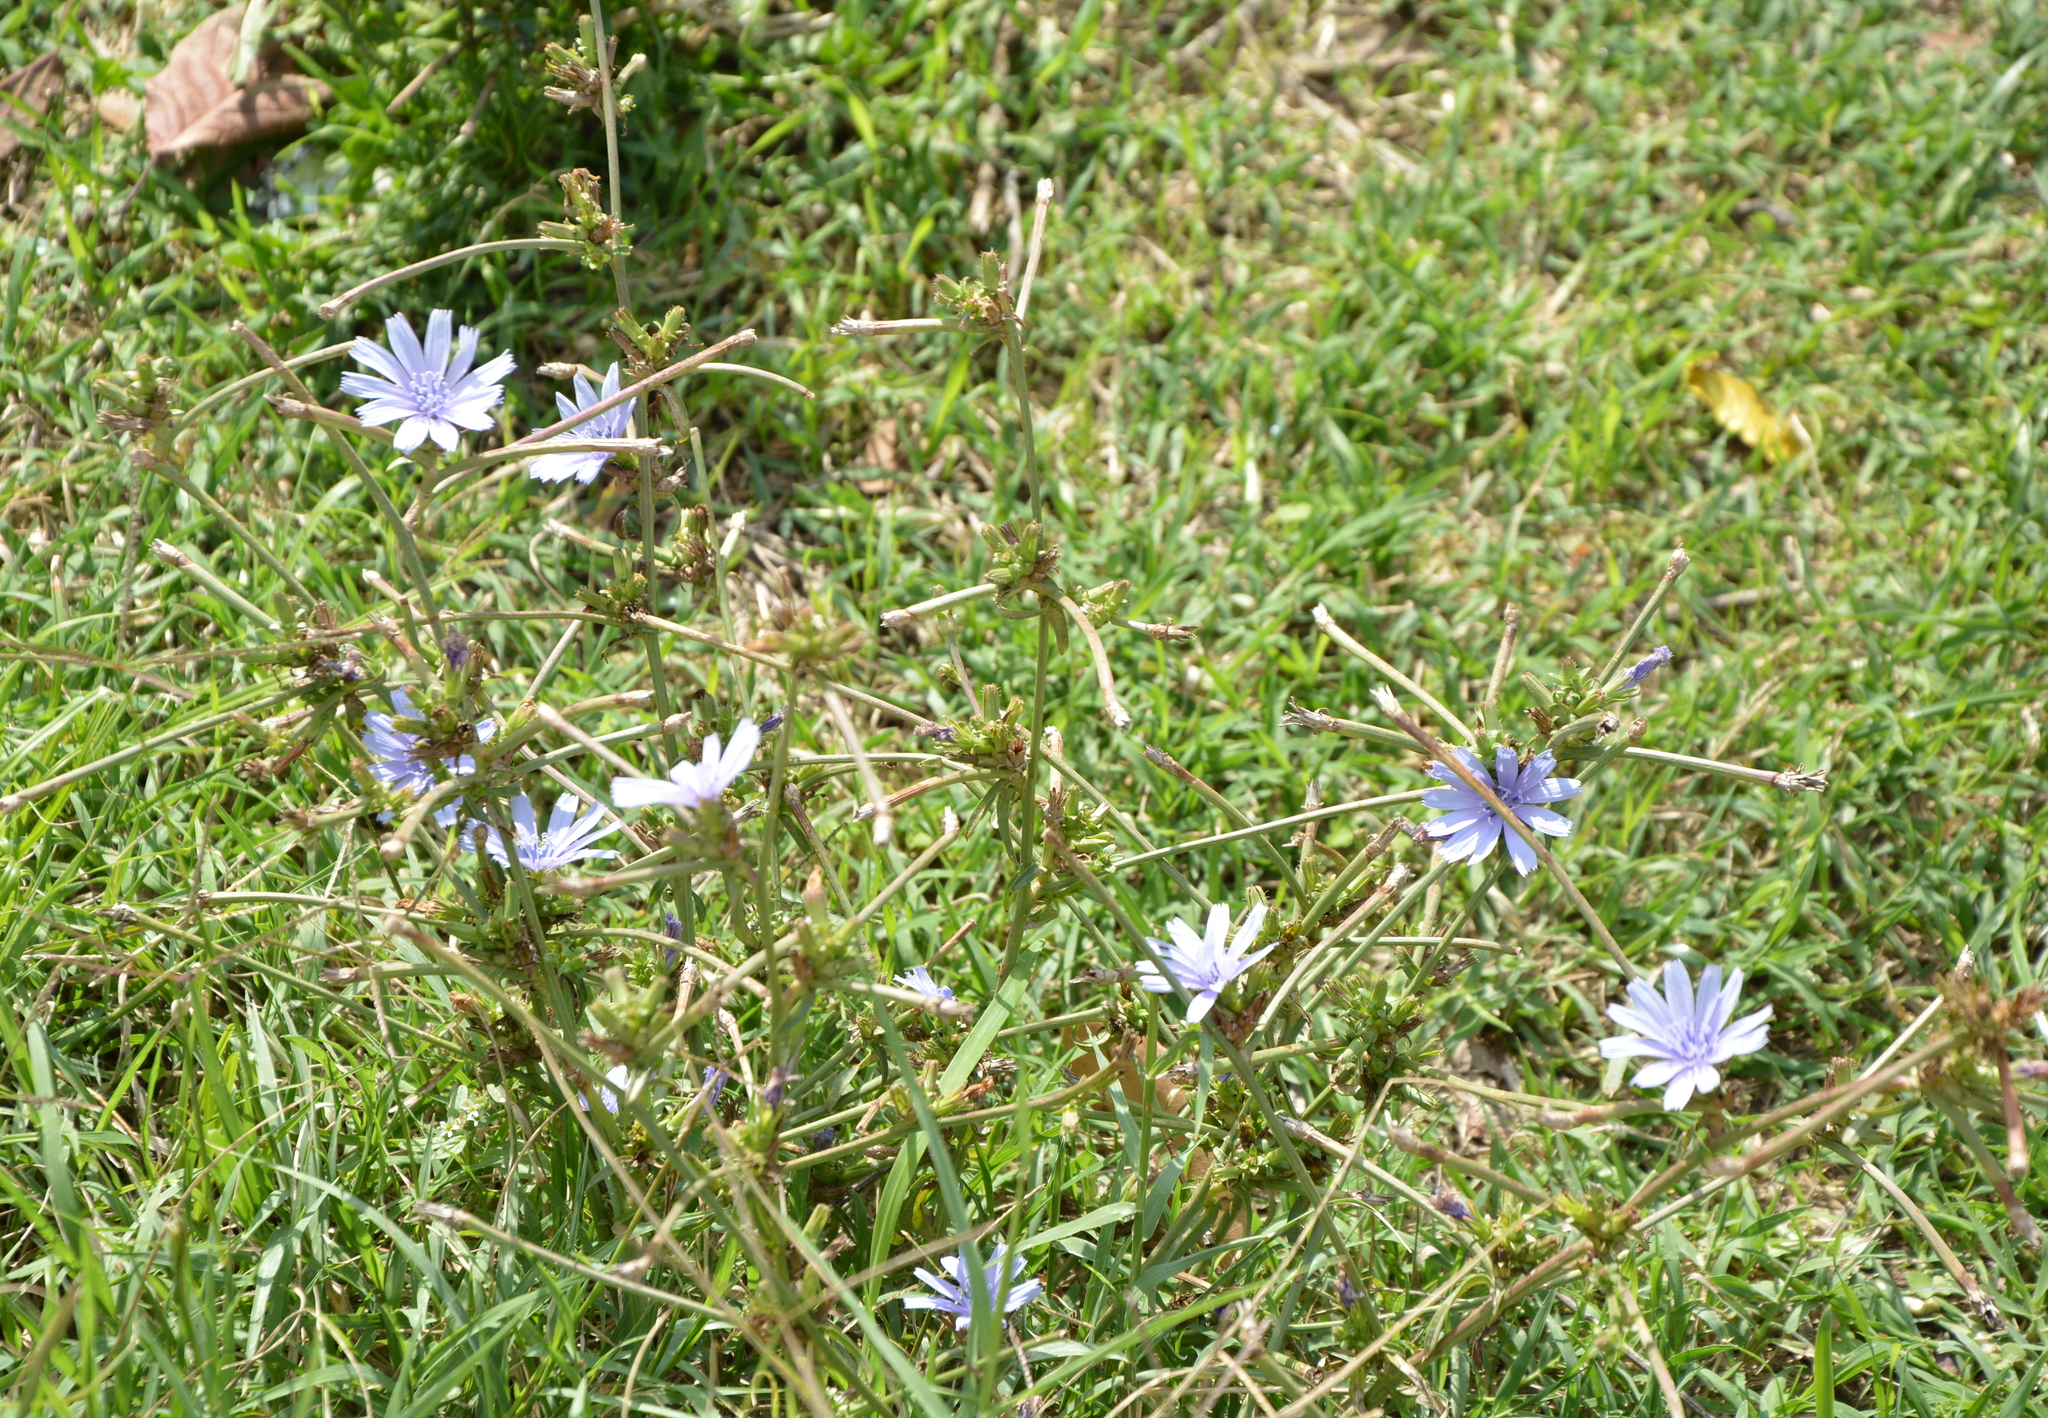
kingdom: Plantae
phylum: Tracheophyta
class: Magnoliopsida
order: Asterales
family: Asteraceae
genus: Cichorium
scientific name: Cichorium intybus
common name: Chicory
